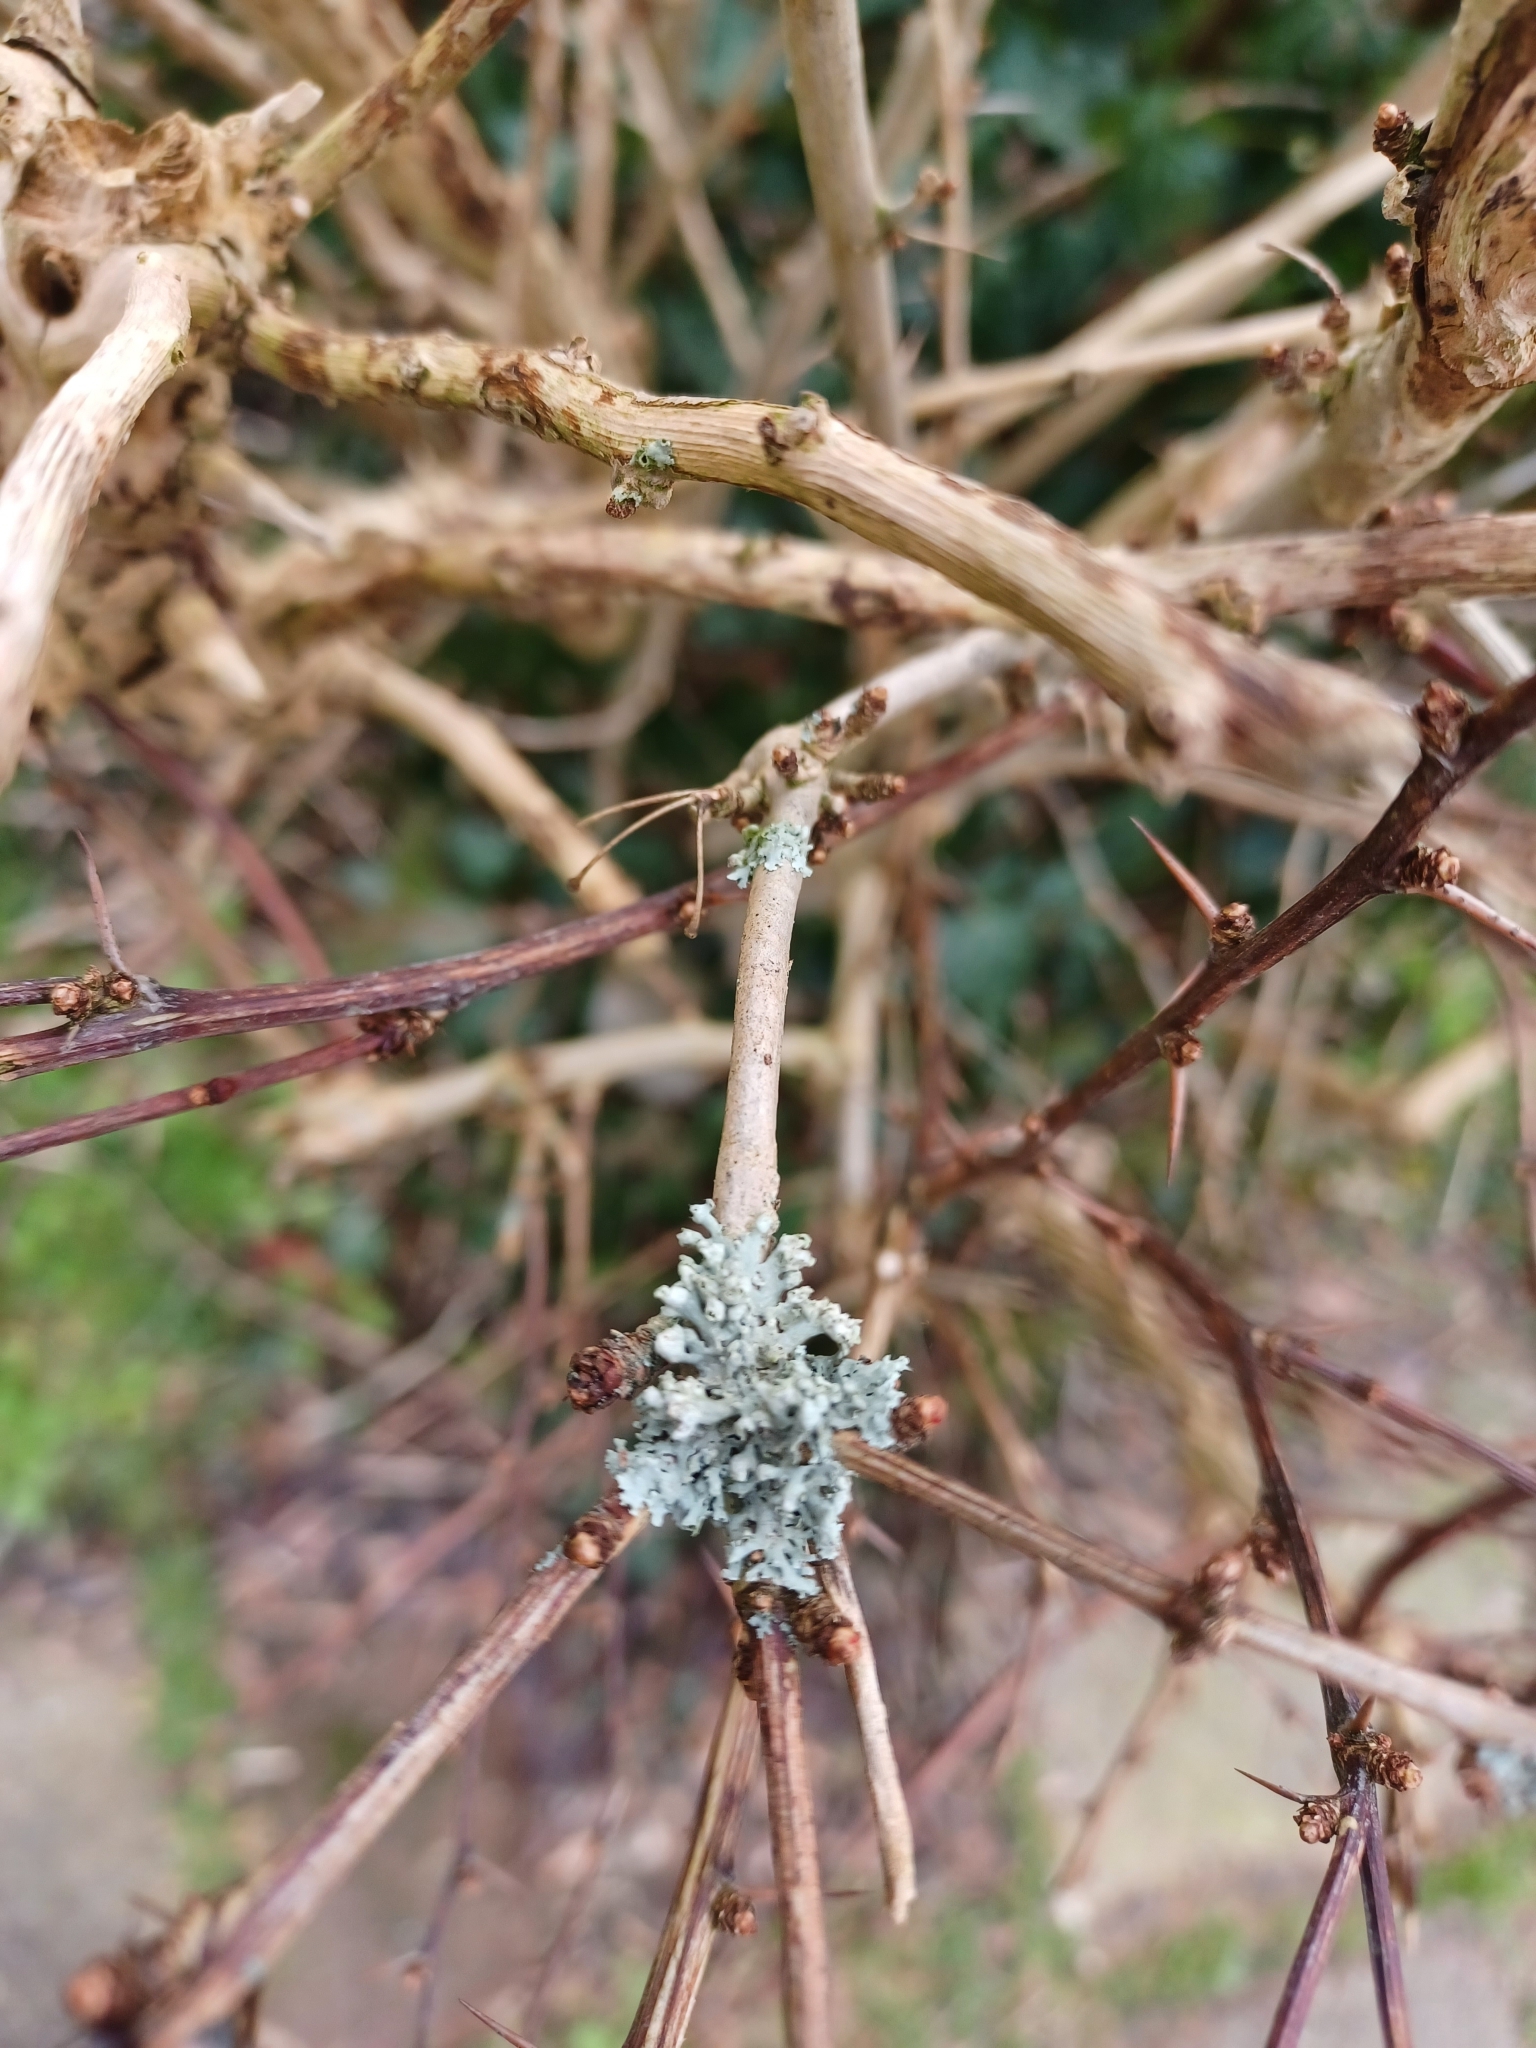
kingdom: Fungi
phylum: Ascomycota
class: Lecanoromycetes
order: Caliciales
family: Physciaceae
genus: Physcia
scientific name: Physcia adscendens
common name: Hooded rosette lichen
